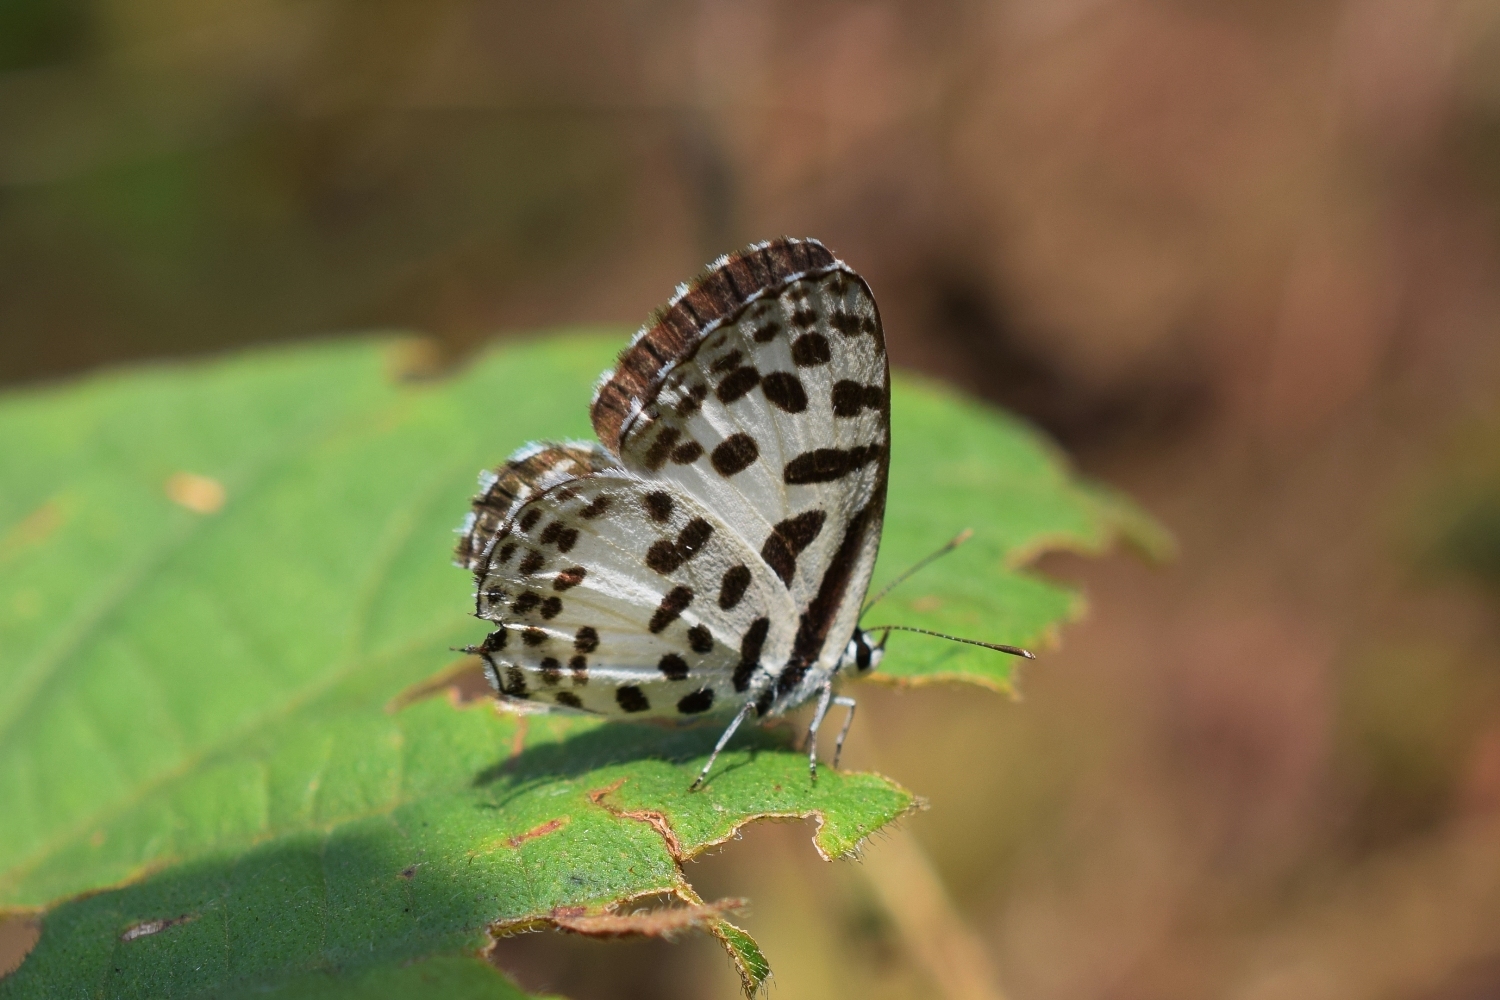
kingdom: Animalia
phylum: Arthropoda
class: Insecta
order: Lepidoptera
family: Lycaenidae
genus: Castalius
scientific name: Castalius rosimon
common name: Common pierrot
